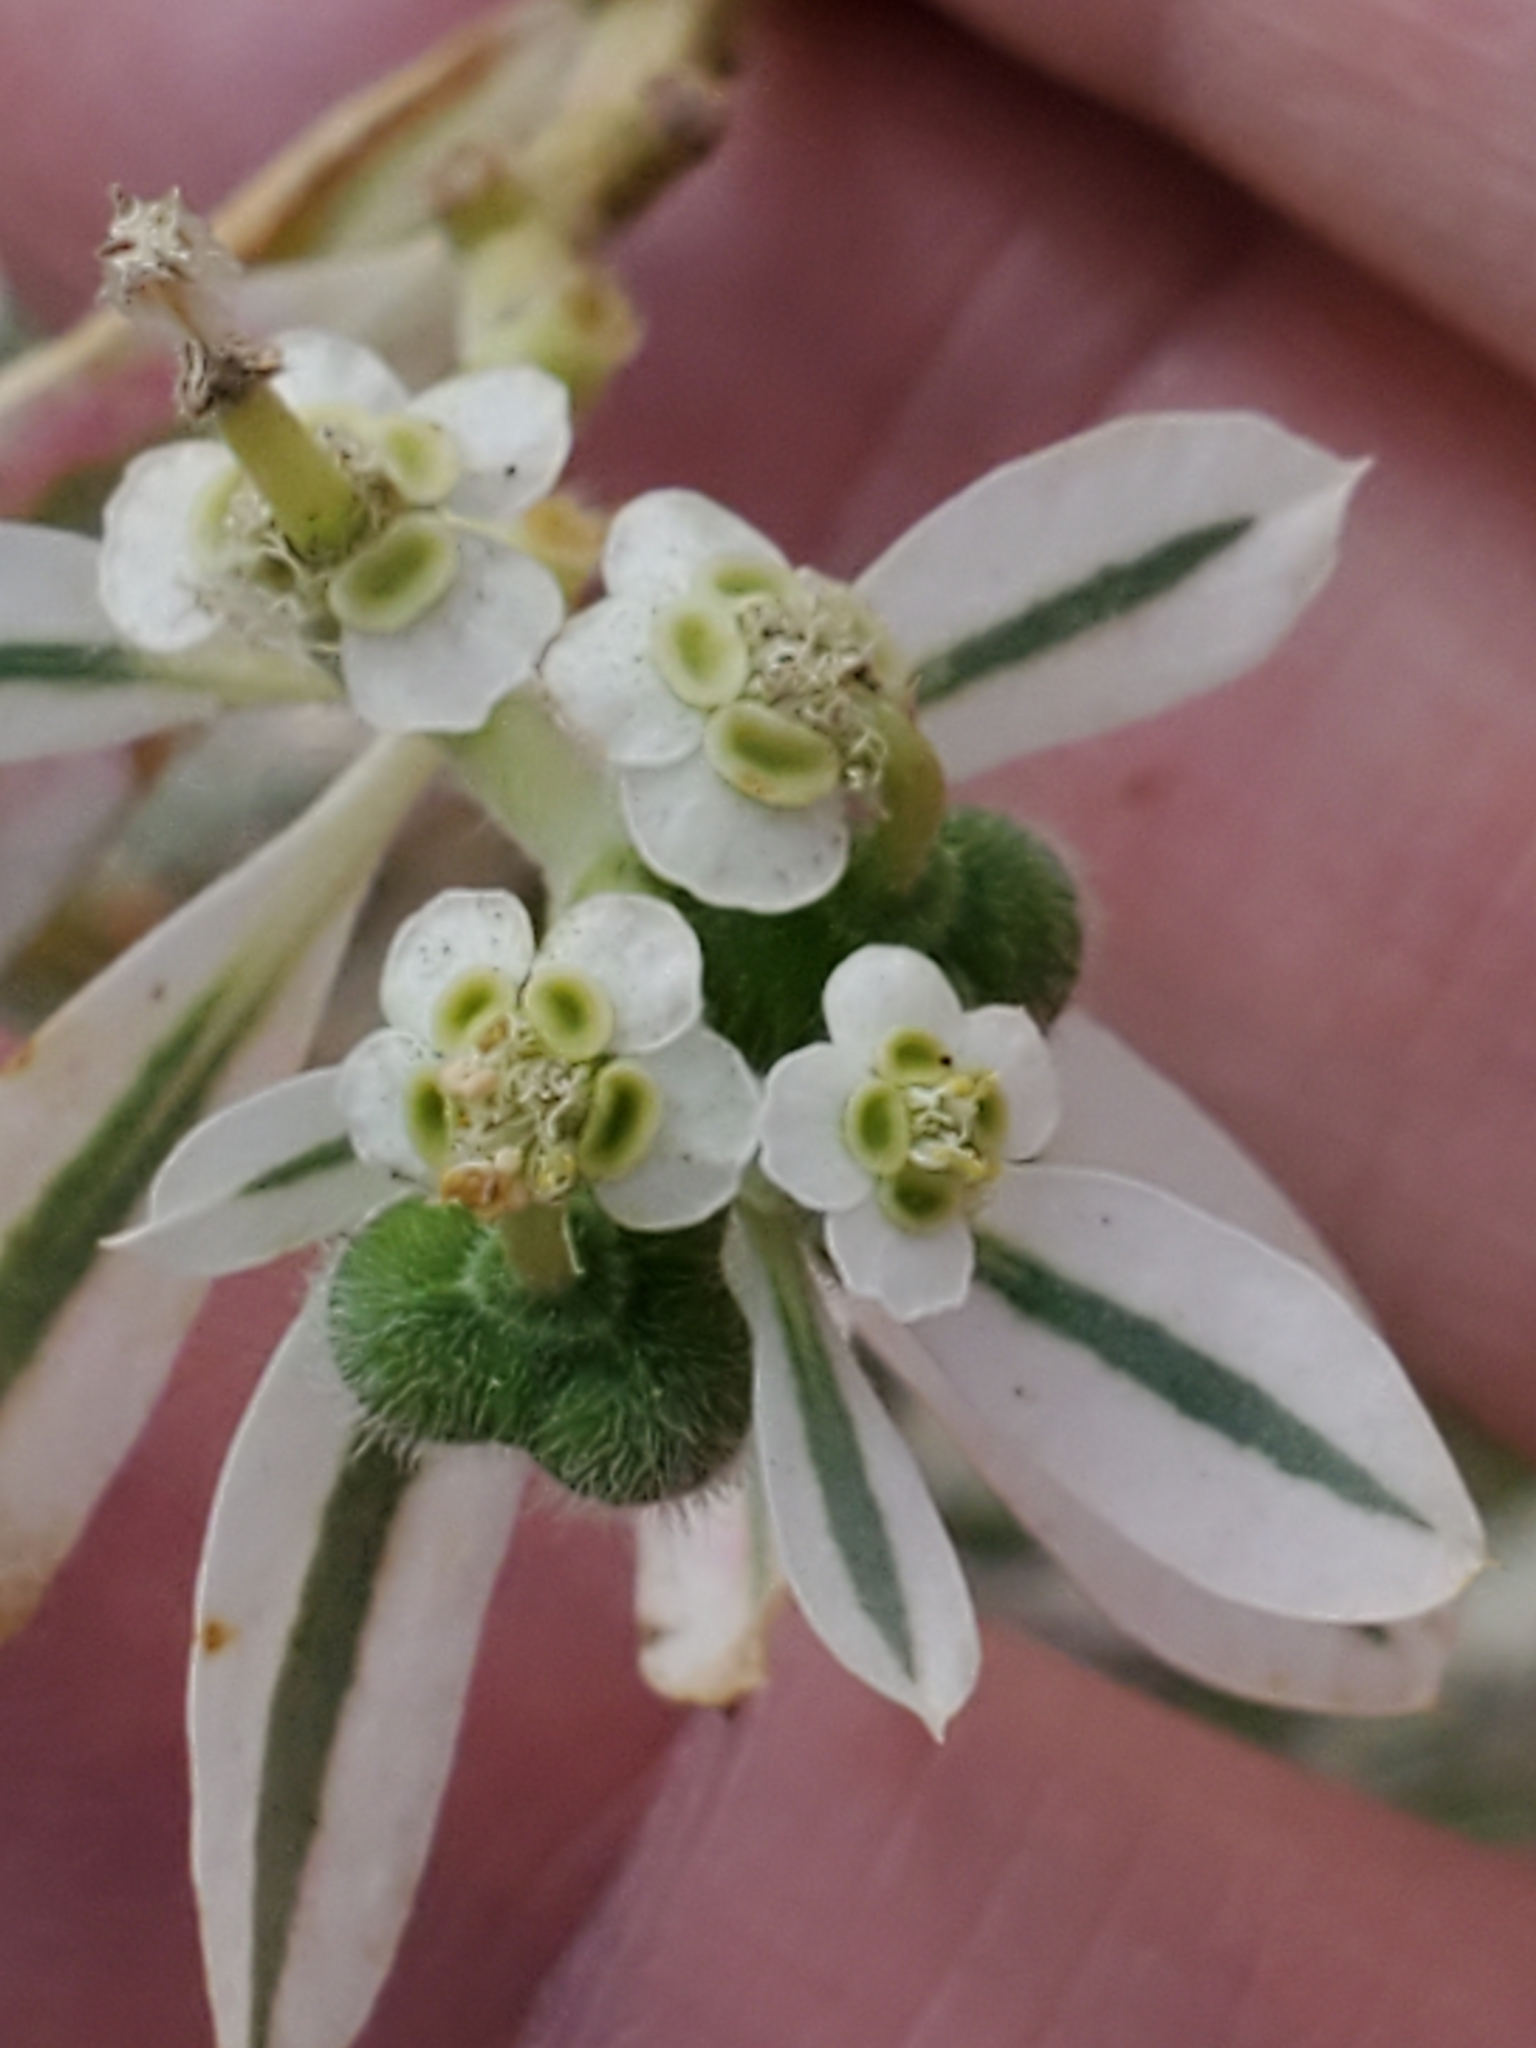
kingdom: Plantae
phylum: Tracheophyta
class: Magnoliopsida
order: Malpighiales
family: Euphorbiaceae
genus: Euphorbia
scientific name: Euphorbia marginata
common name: Ghostweed
